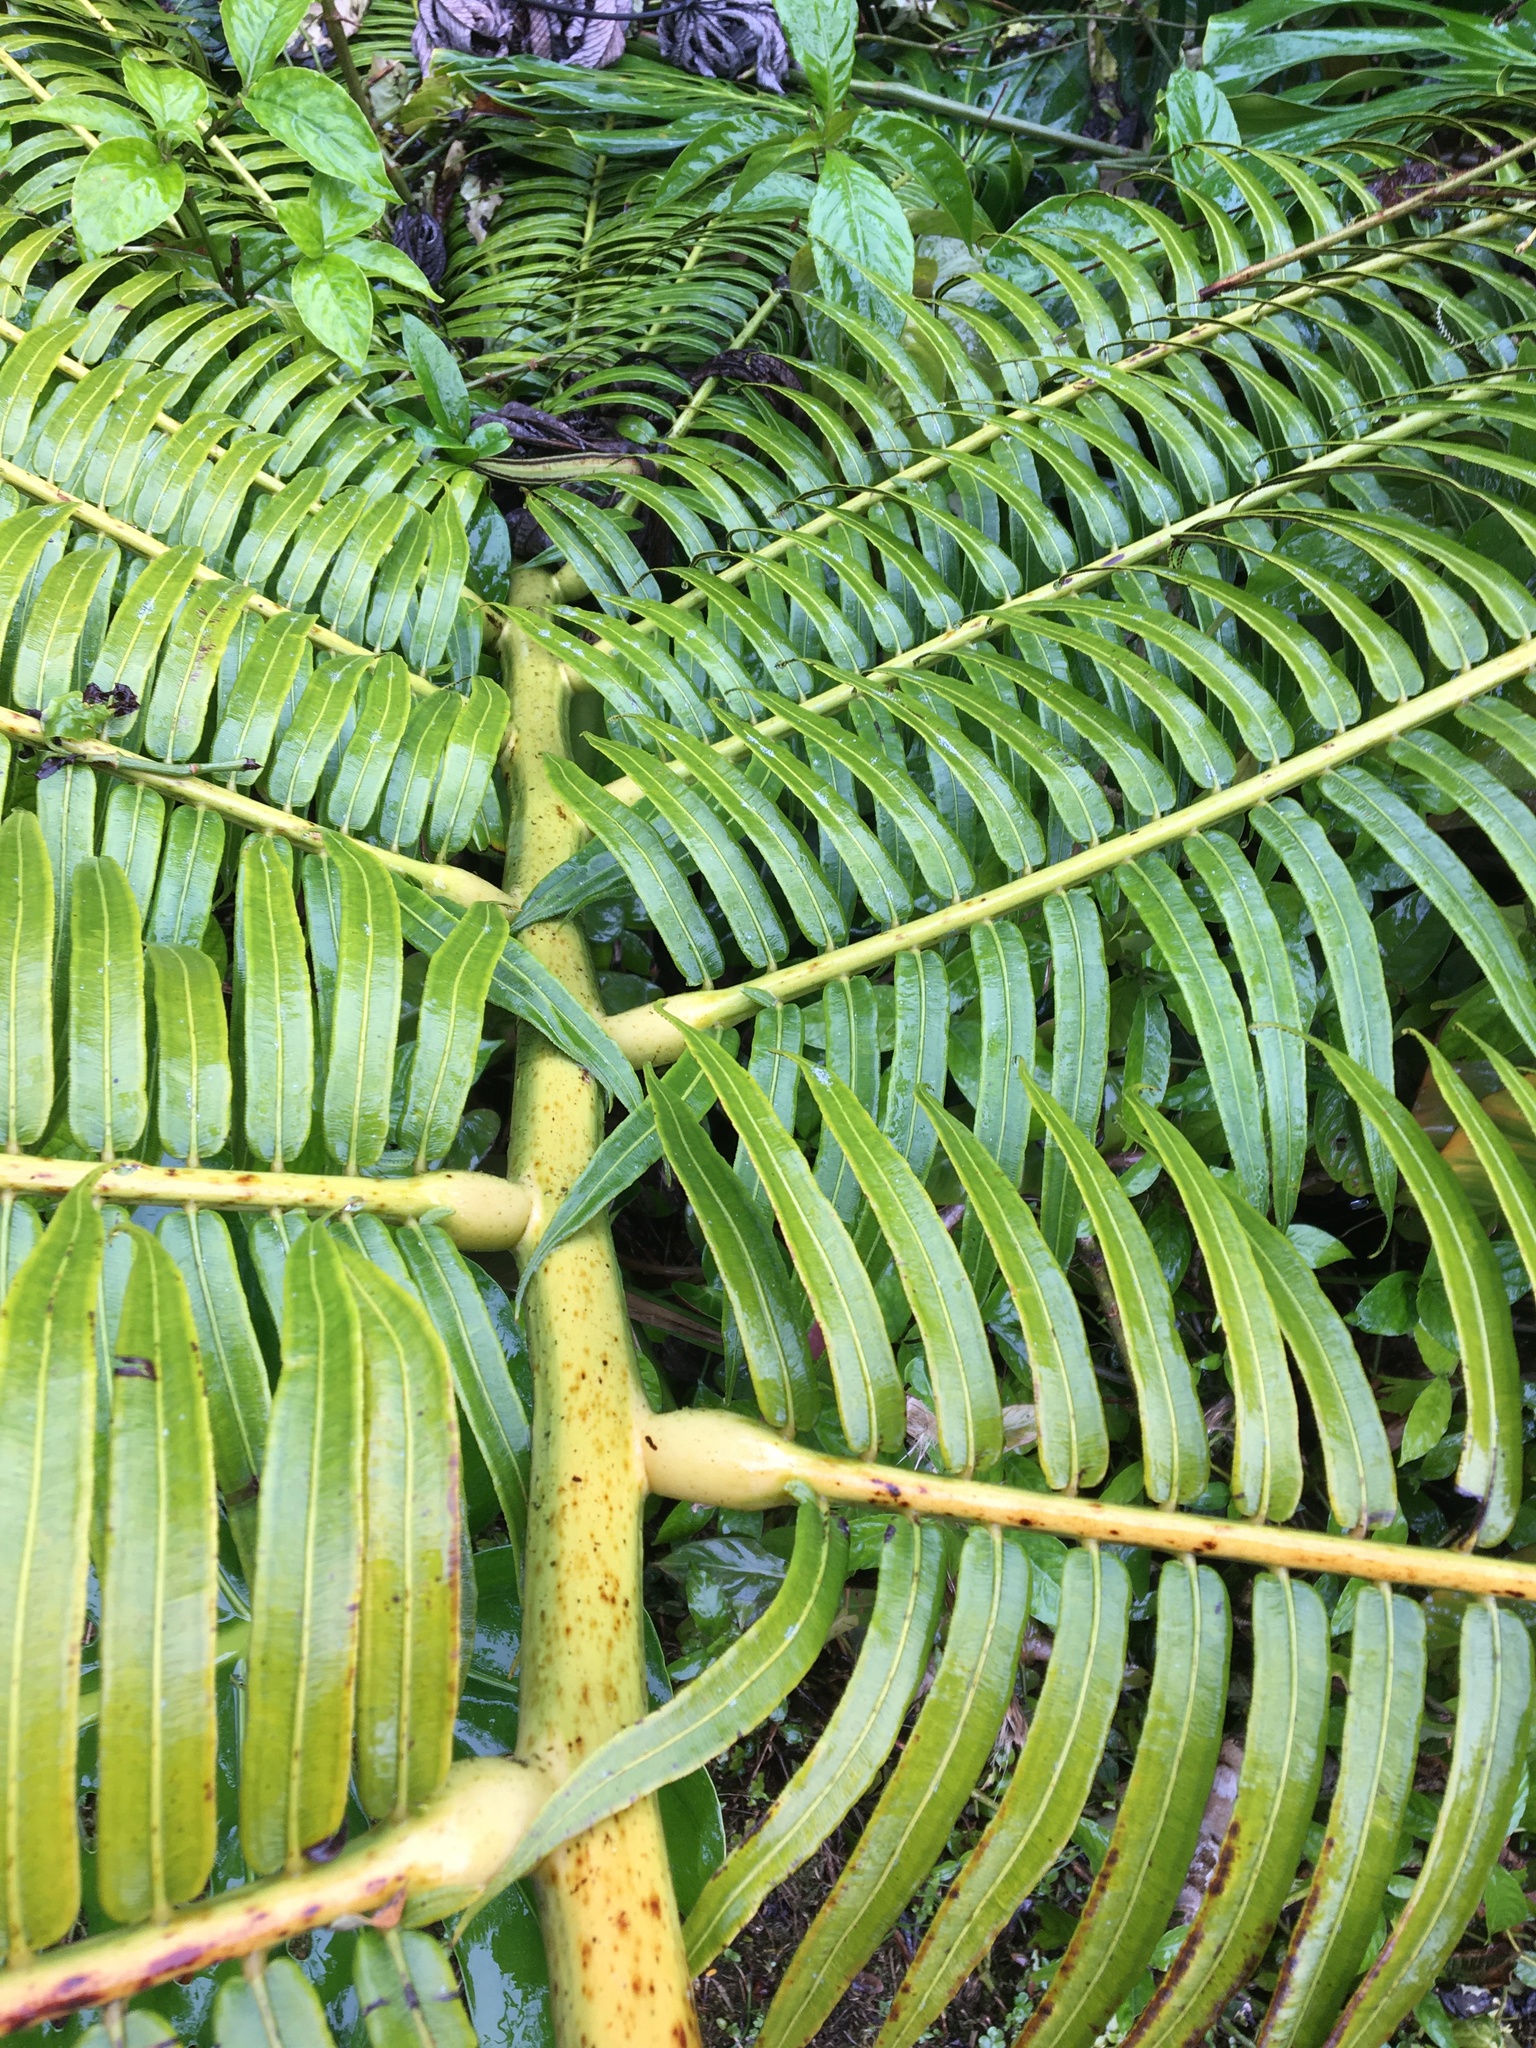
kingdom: Plantae
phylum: Tracheophyta
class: Polypodiopsida
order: Marattiales
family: Marattiaceae
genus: Angiopteris
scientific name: Angiopteris evecta
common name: Mule's-foot fern
